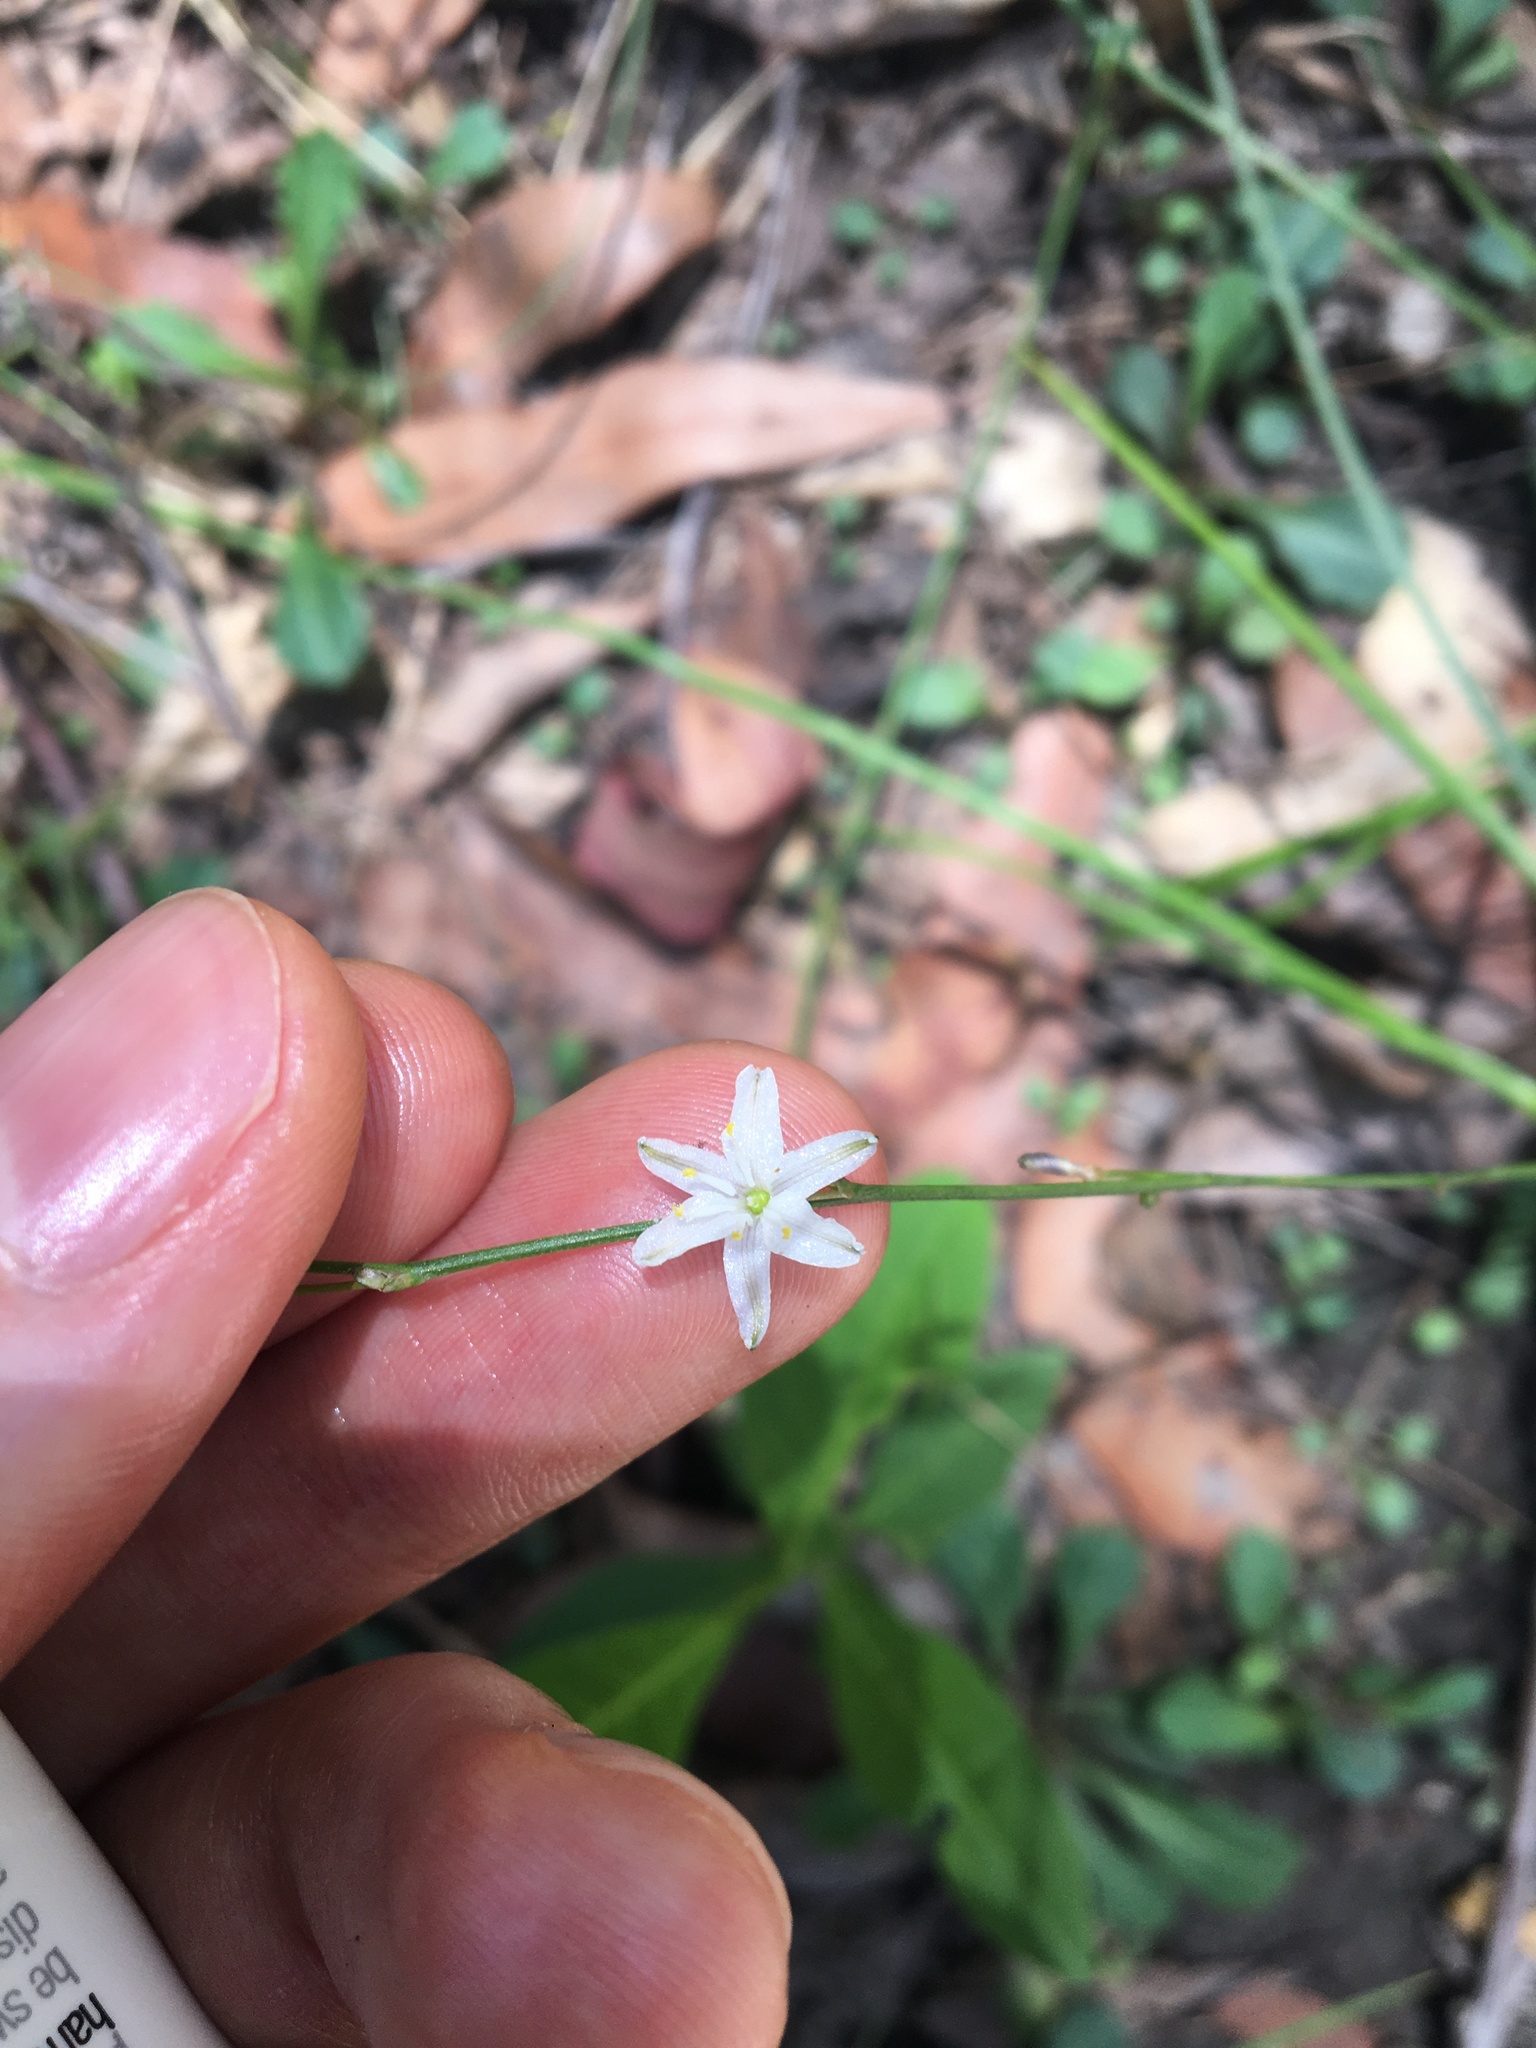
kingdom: Plantae
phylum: Tracheophyta
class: Liliopsida
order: Asparagales
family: Asphodelaceae
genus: Caesia
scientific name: Caesia parviflora
